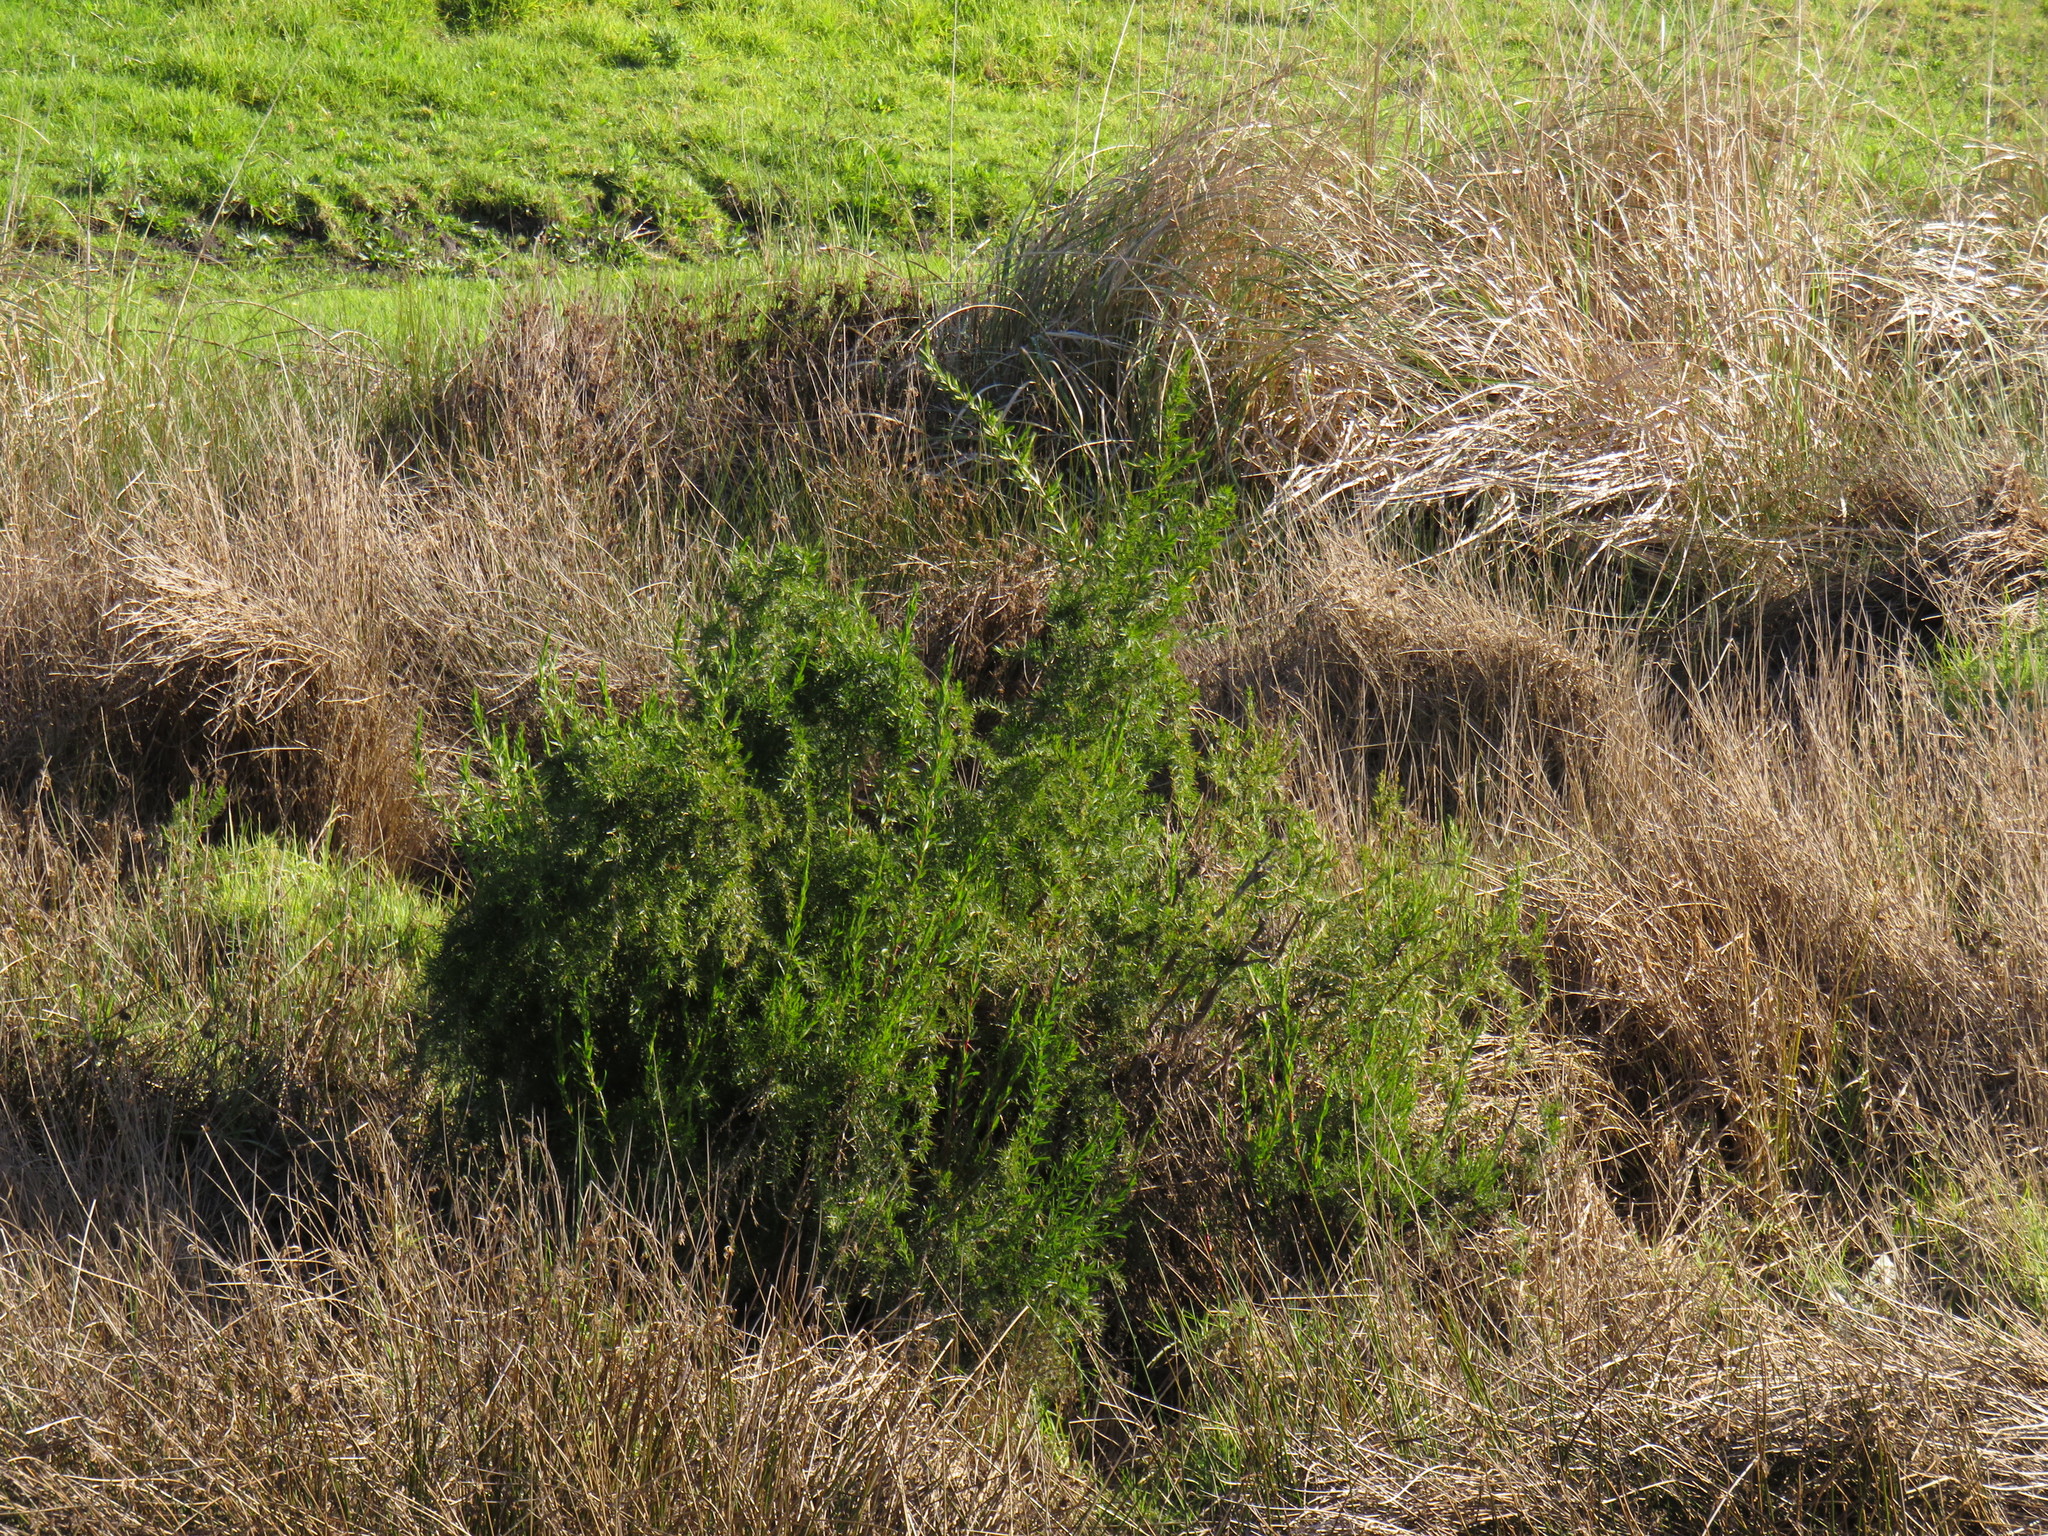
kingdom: Plantae
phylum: Tracheophyta
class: Magnoliopsida
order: Rosales
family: Rosaceae
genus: Cliffortia
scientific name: Cliffortia strobilifera
